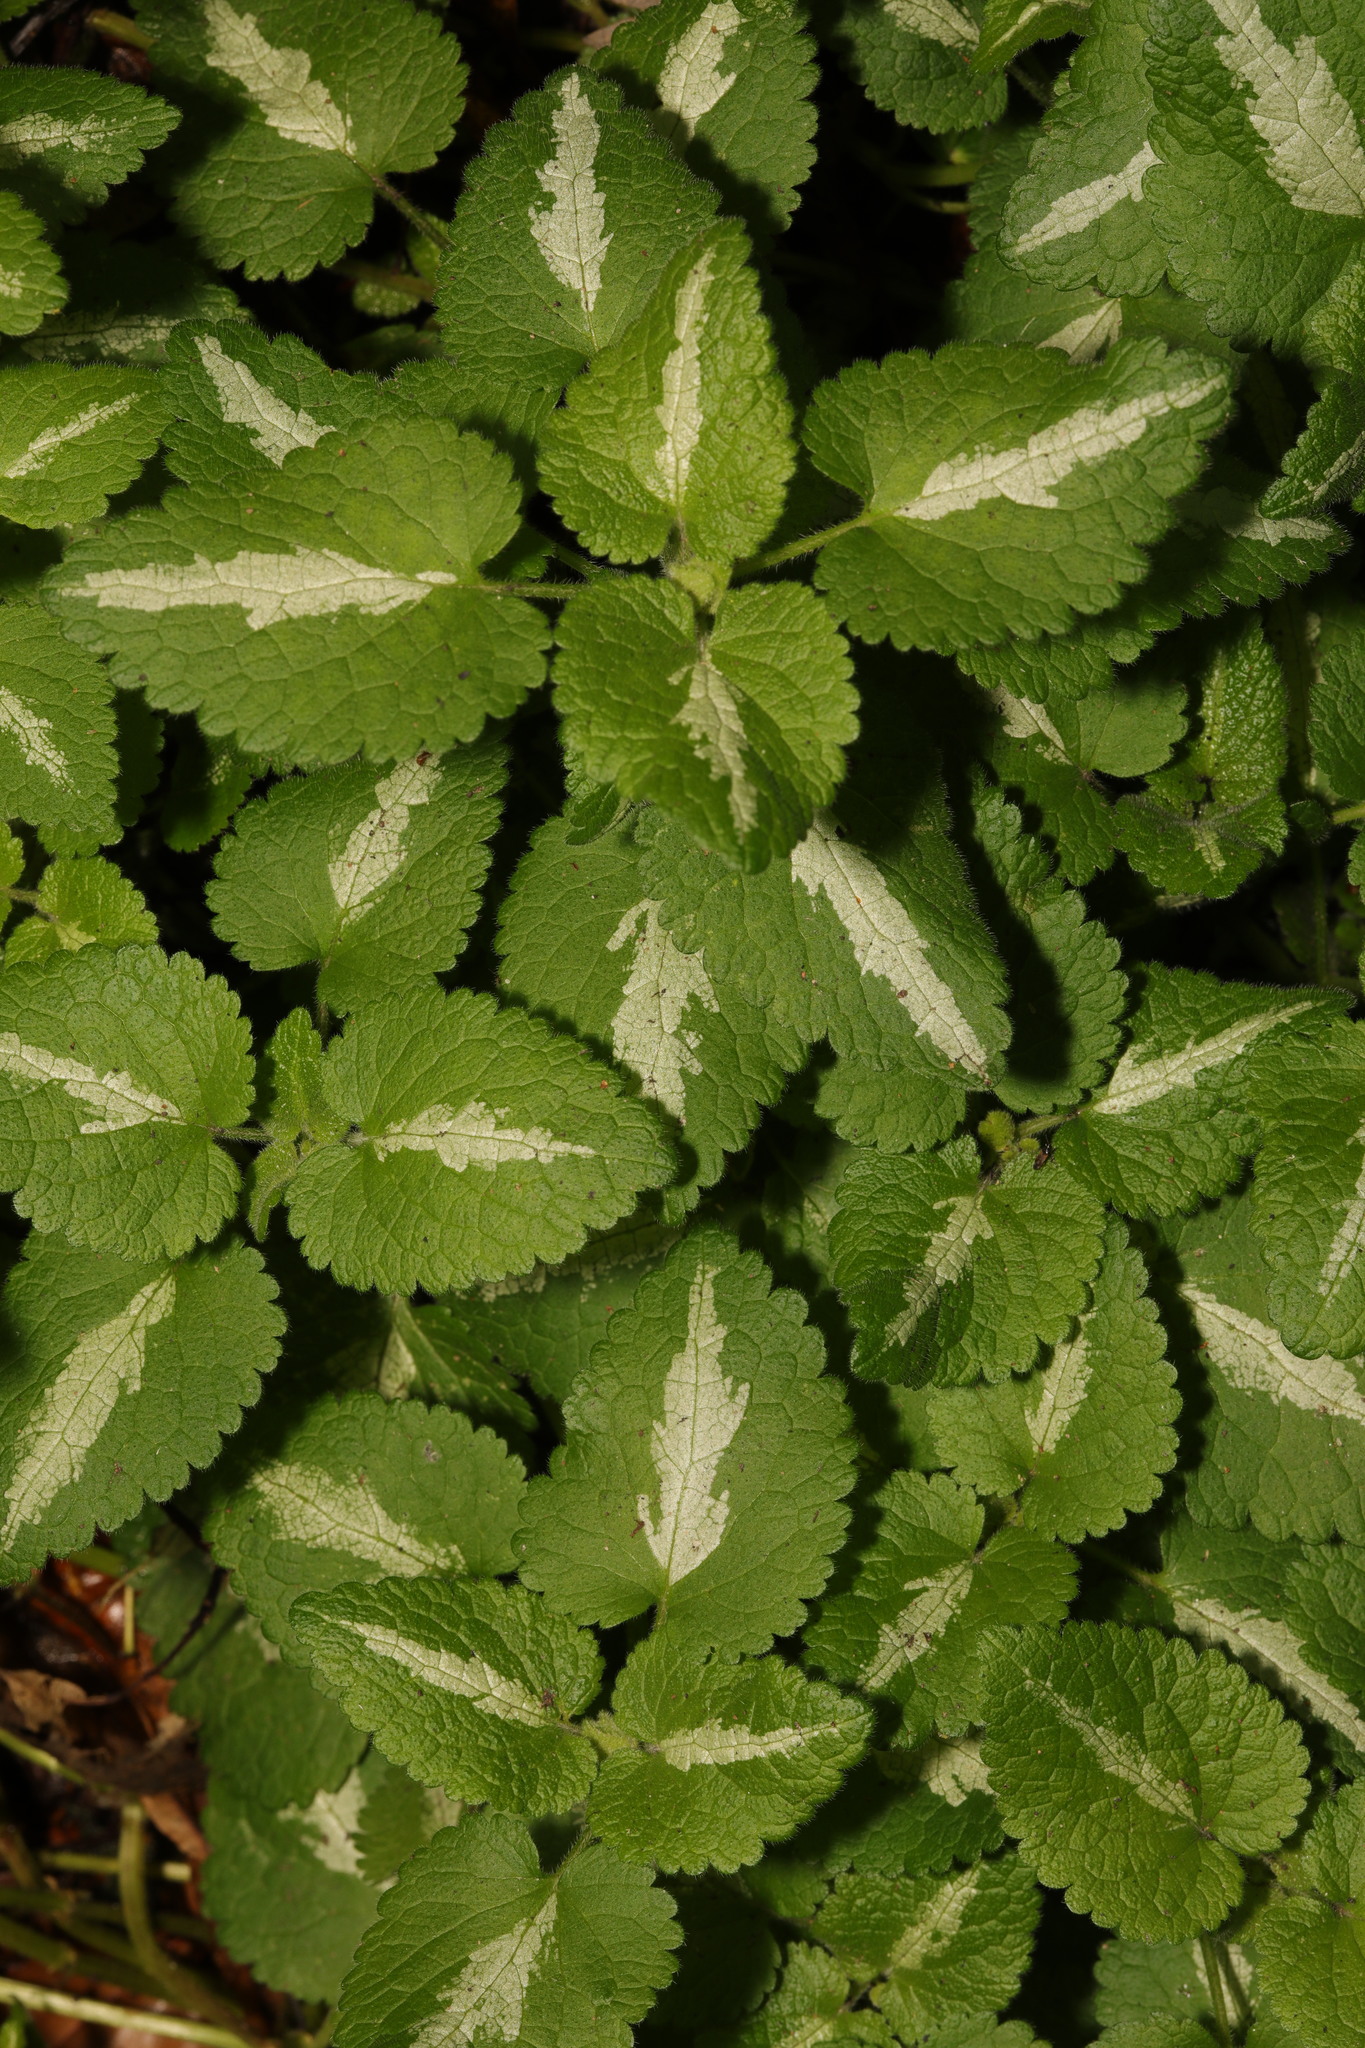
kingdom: Plantae
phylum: Tracheophyta
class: Magnoliopsida
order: Lamiales
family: Lamiaceae
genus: Lamium
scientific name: Lamium maculatum
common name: Spotted dead-nettle
